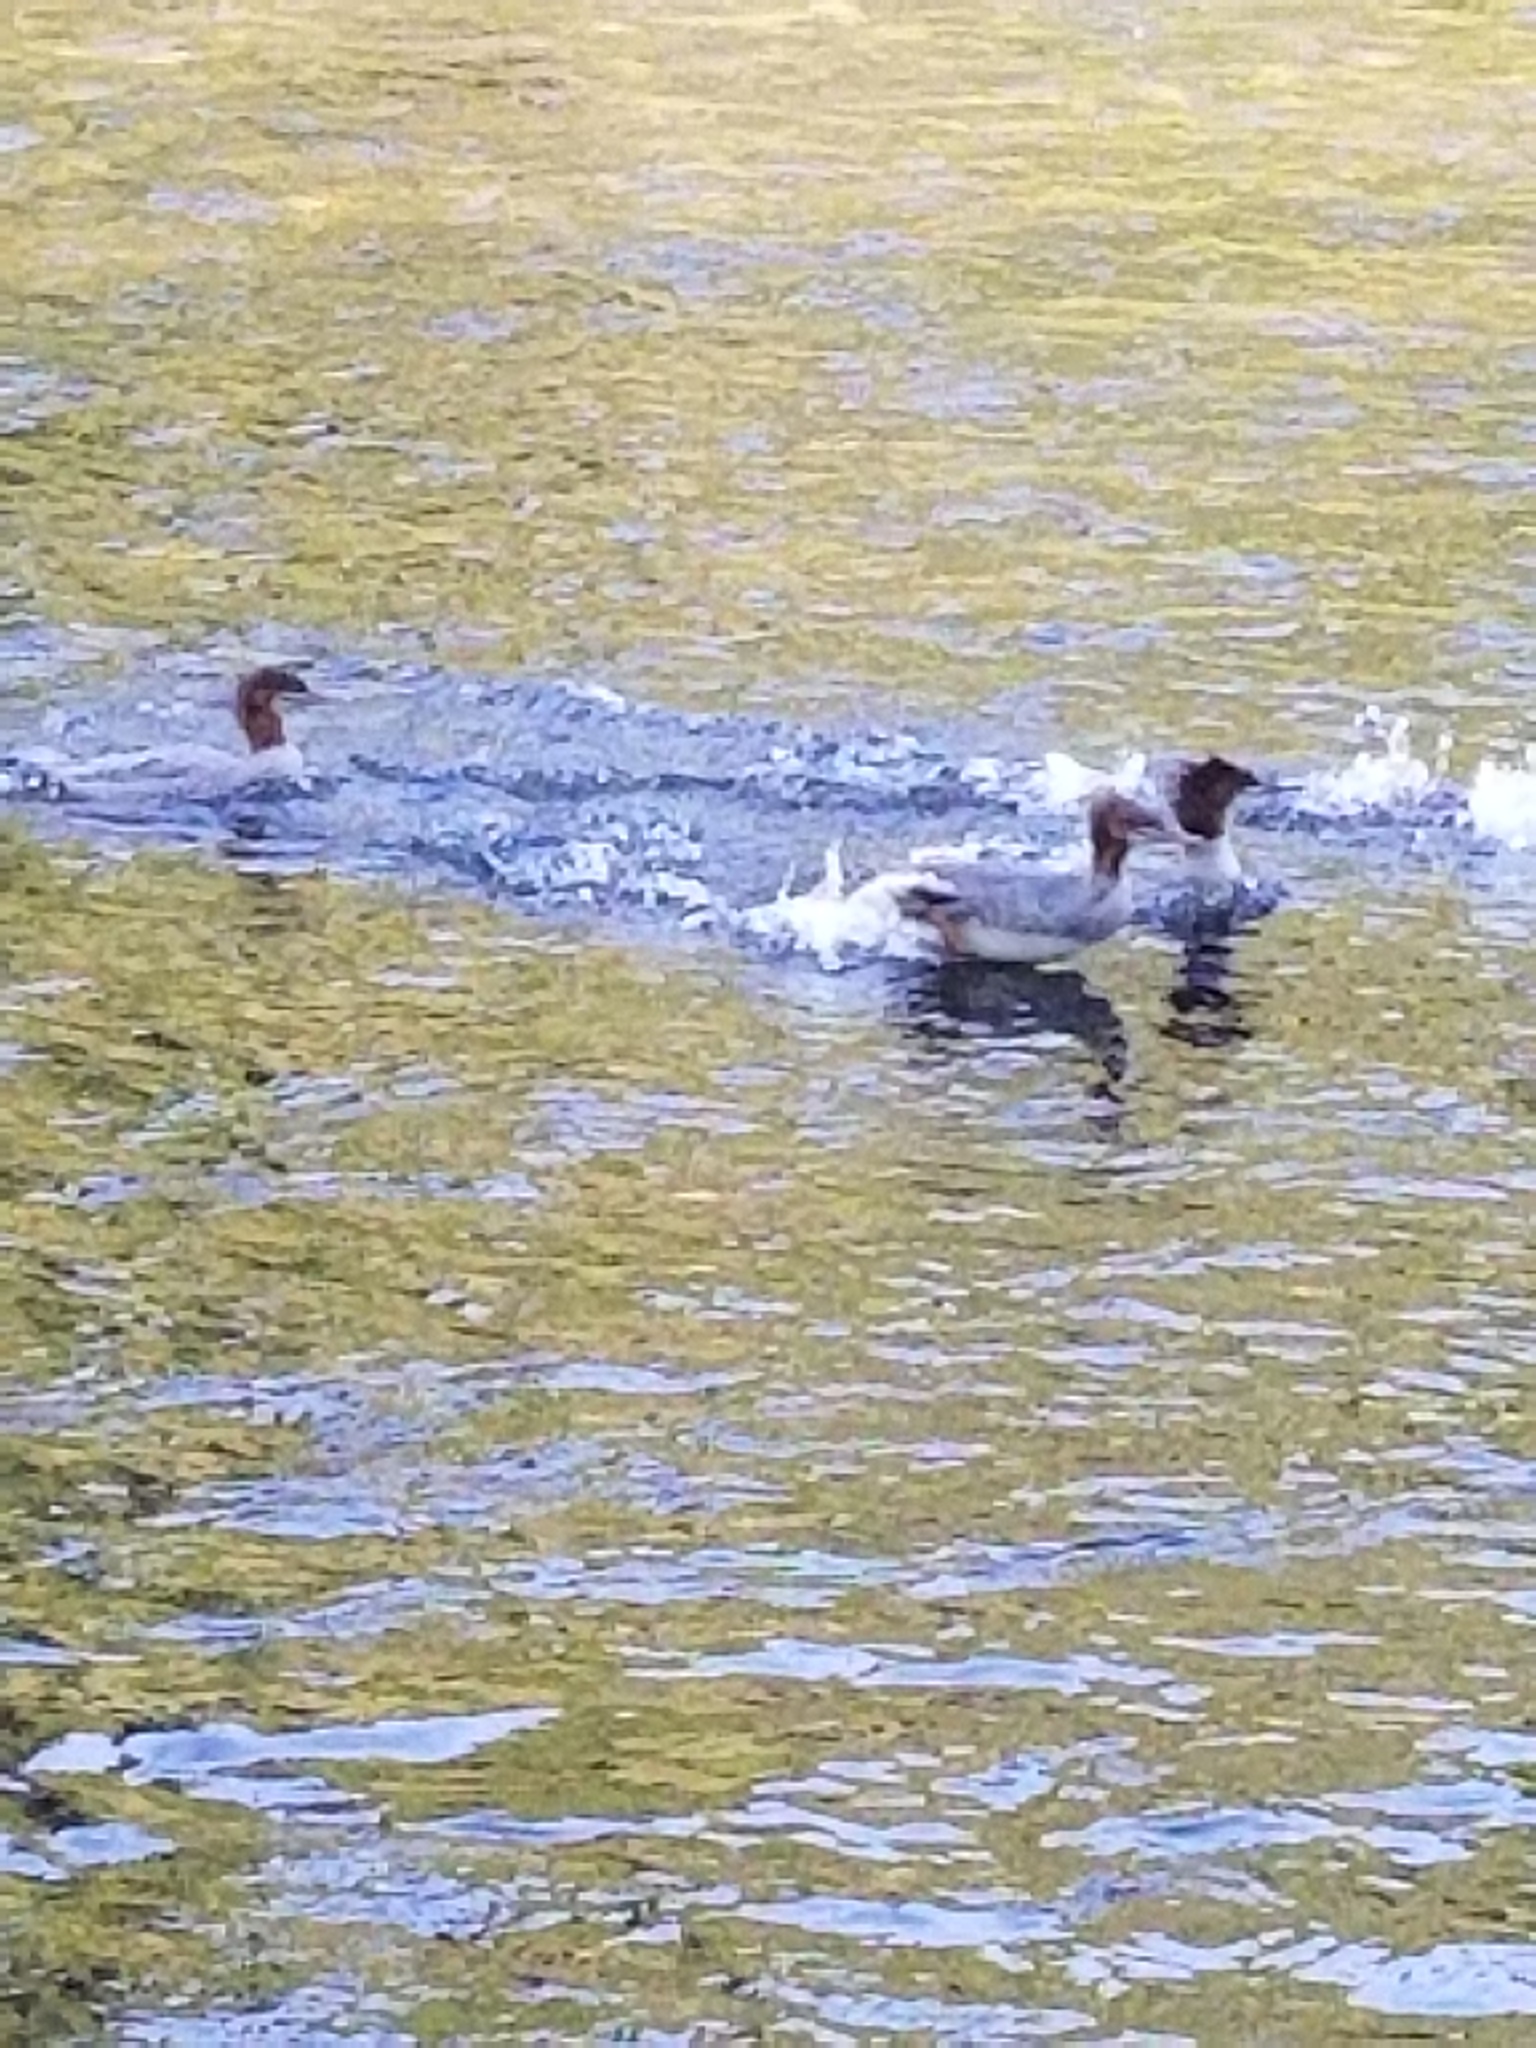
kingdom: Animalia
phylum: Chordata
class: Aves
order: Anseriformes
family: Anatidae
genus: Mergus
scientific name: Mergus merganser
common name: Common merganser
